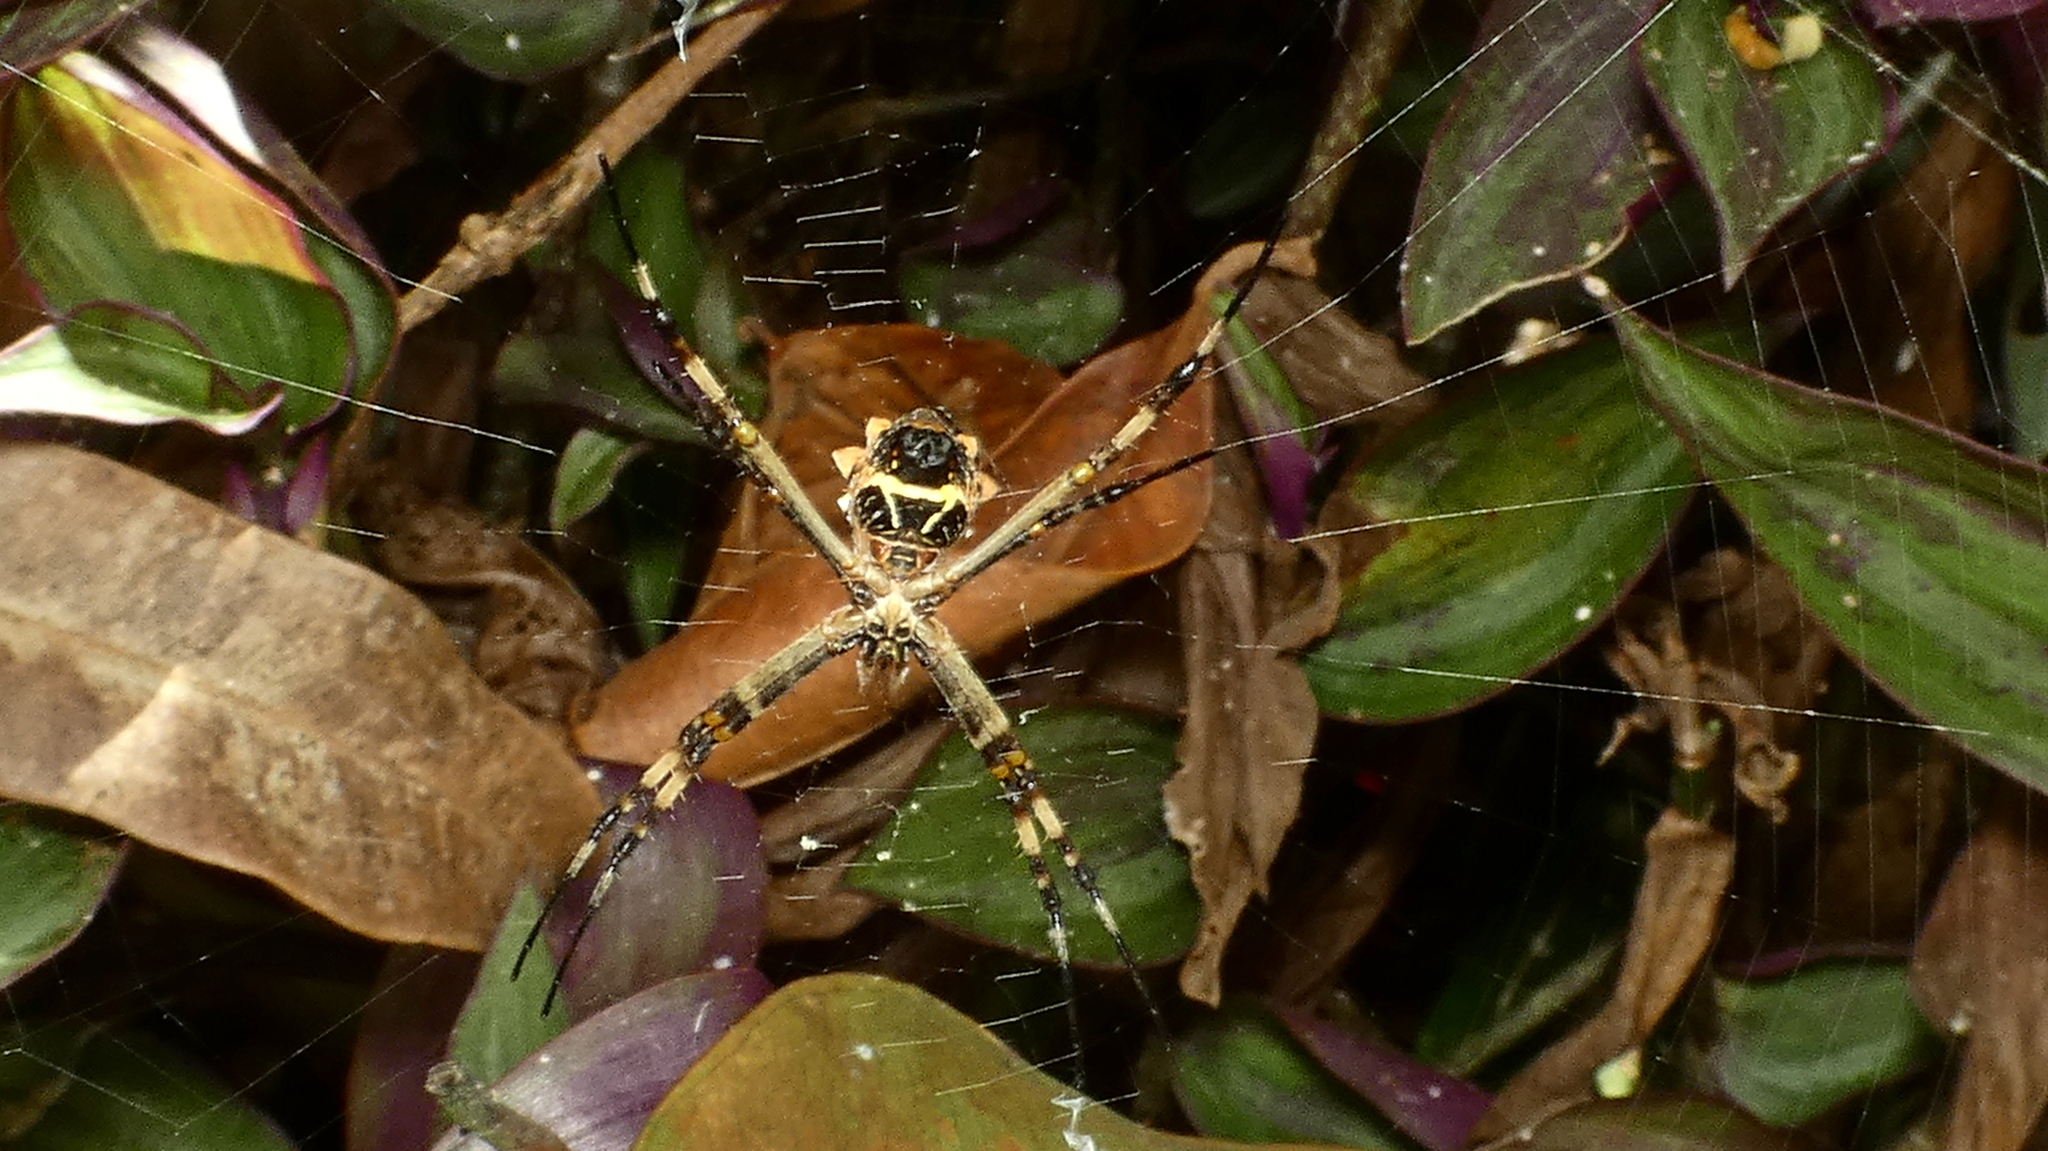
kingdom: Animalia
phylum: Arthropoda
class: Arachnida
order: Araneae
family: Araneidae
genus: Argiope
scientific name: Argiope argentata
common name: Orb weavers
